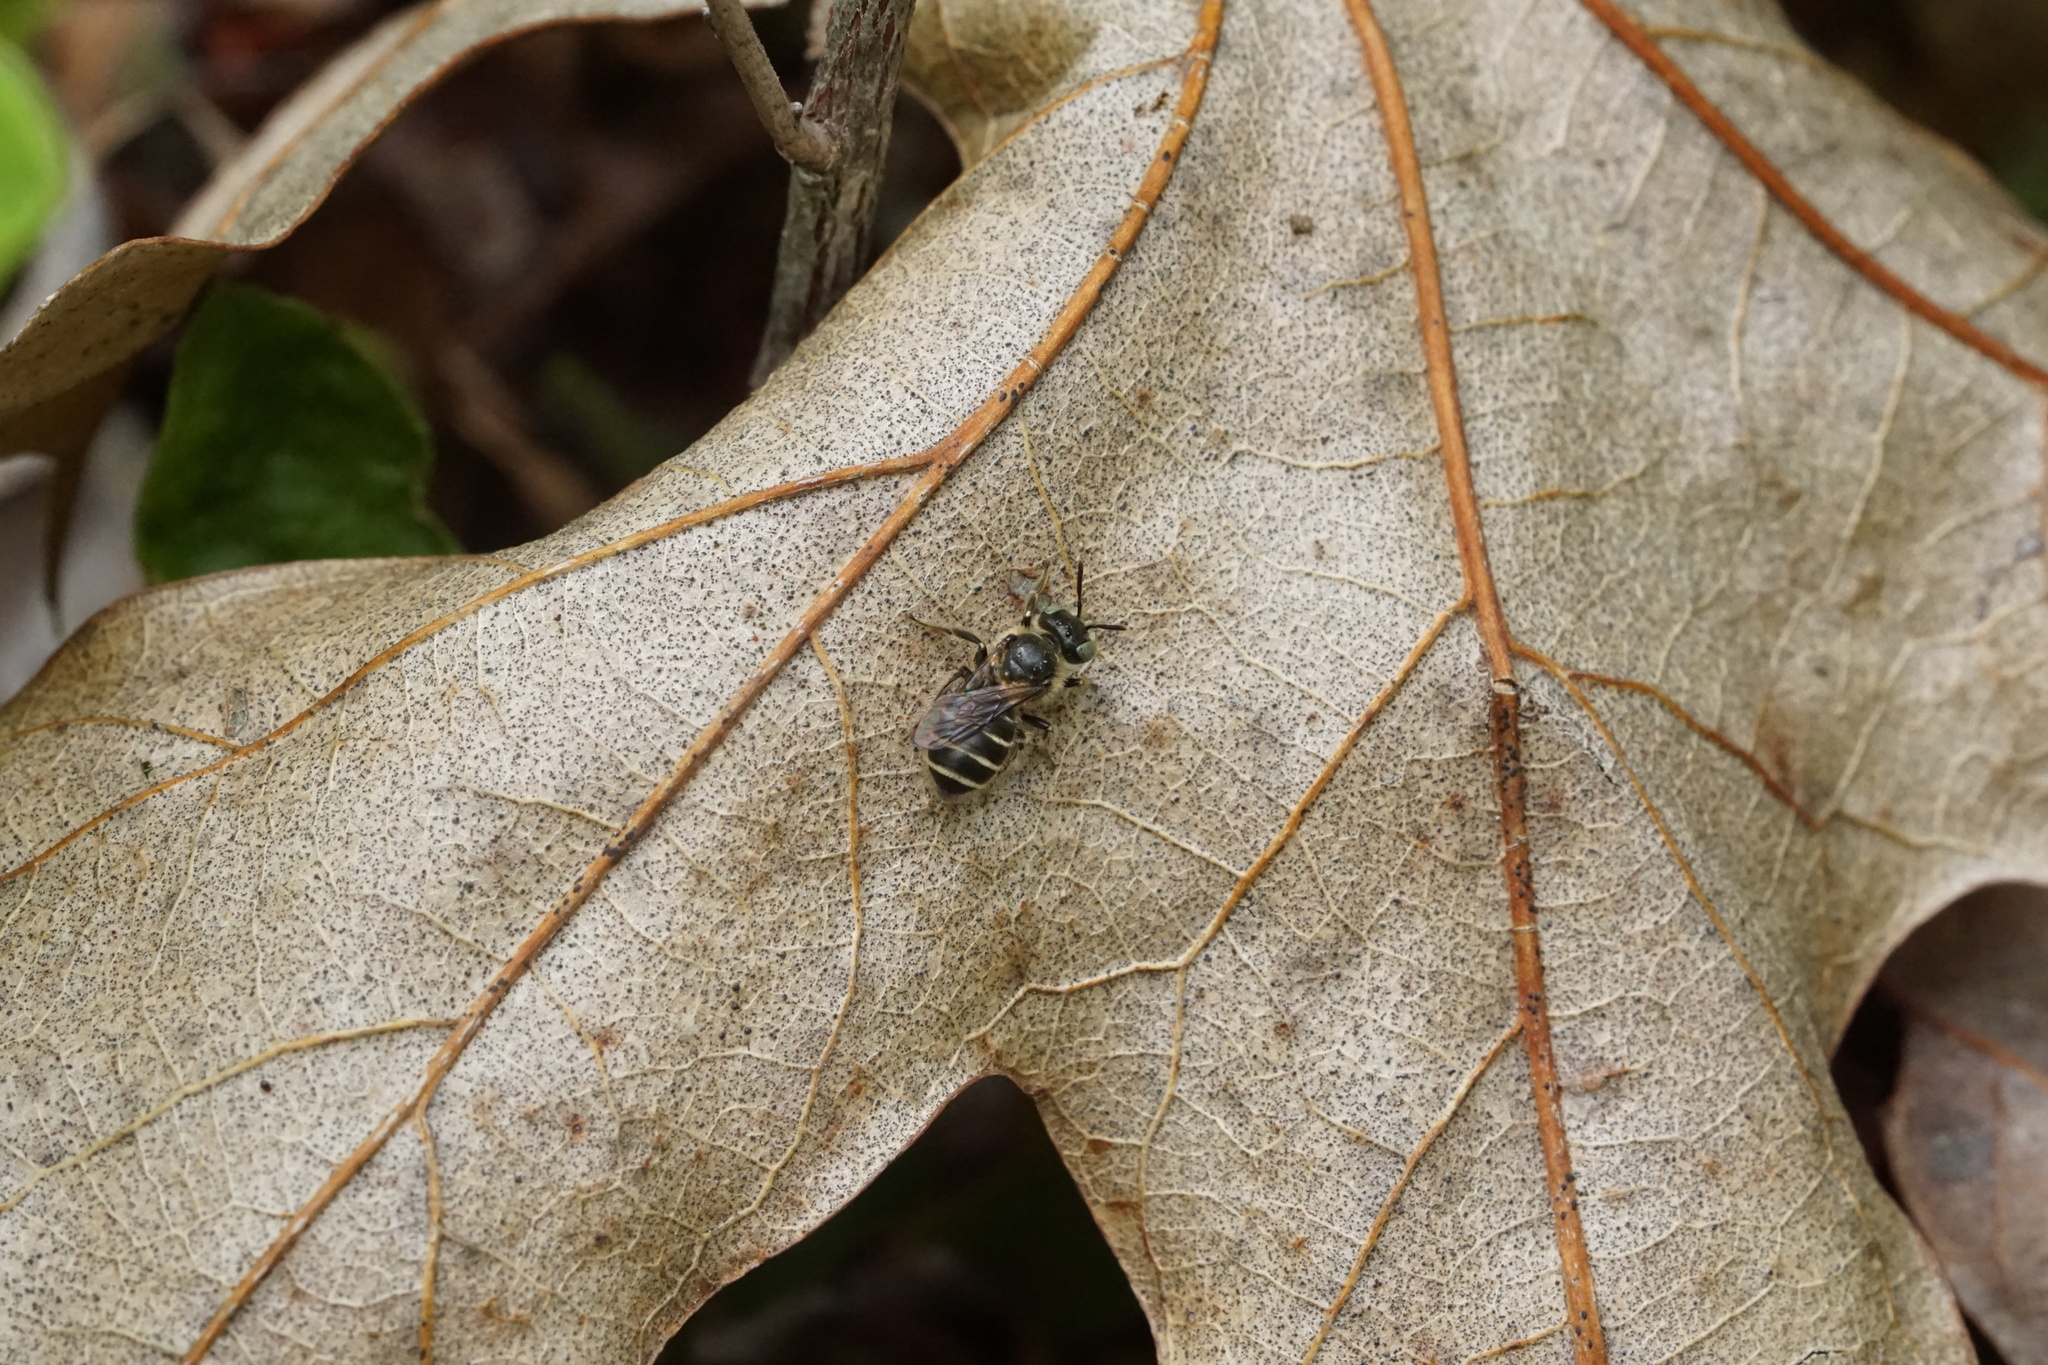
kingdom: Animalia
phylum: Arthropoda
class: Insecta
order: Hymenoptera
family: Andrenidae
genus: Calliopsis
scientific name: Calliopsis andreniformis
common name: Eastern calliopsis bee
